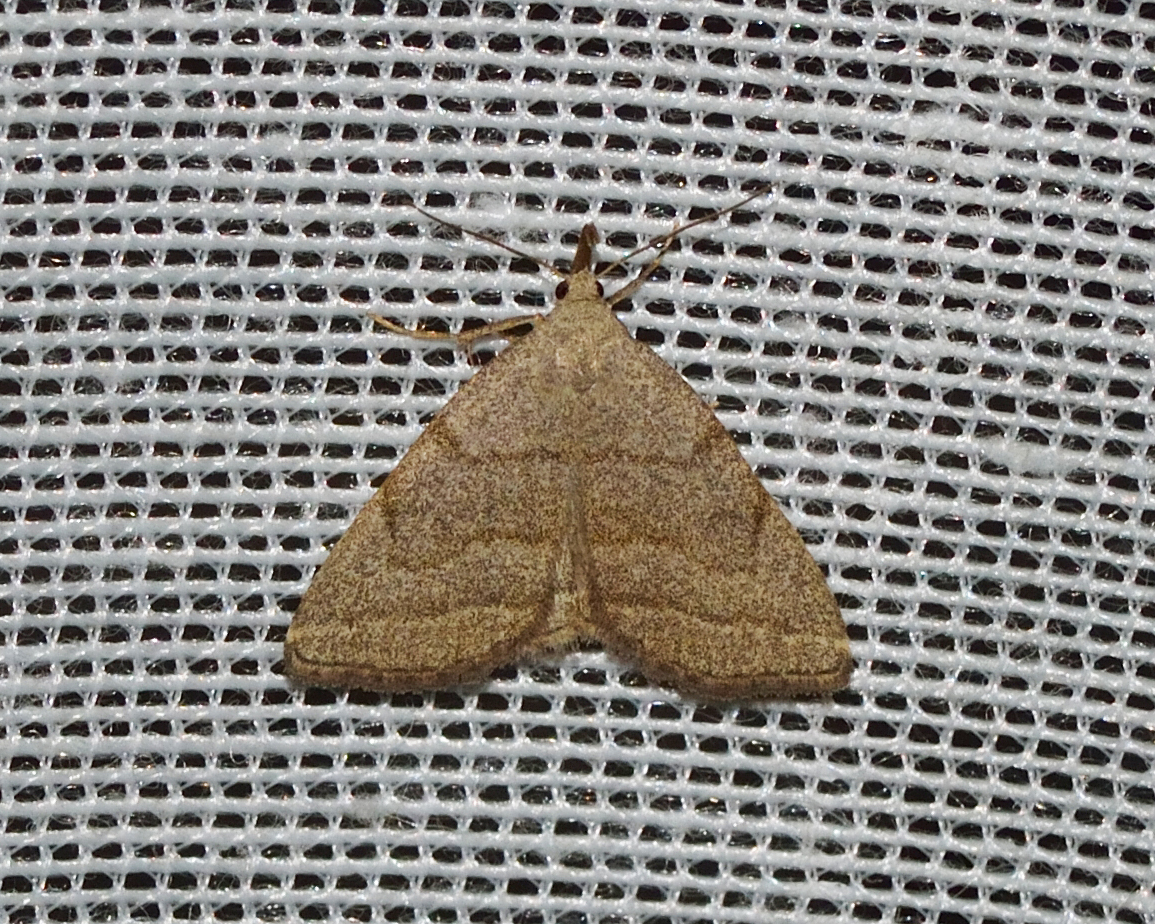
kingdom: Animalia
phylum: Arthropoda
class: Insecta
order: Lepidoptera
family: Erebidae
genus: Pechipogo
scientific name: Pechipogo strigilata
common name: Common fan-foot
